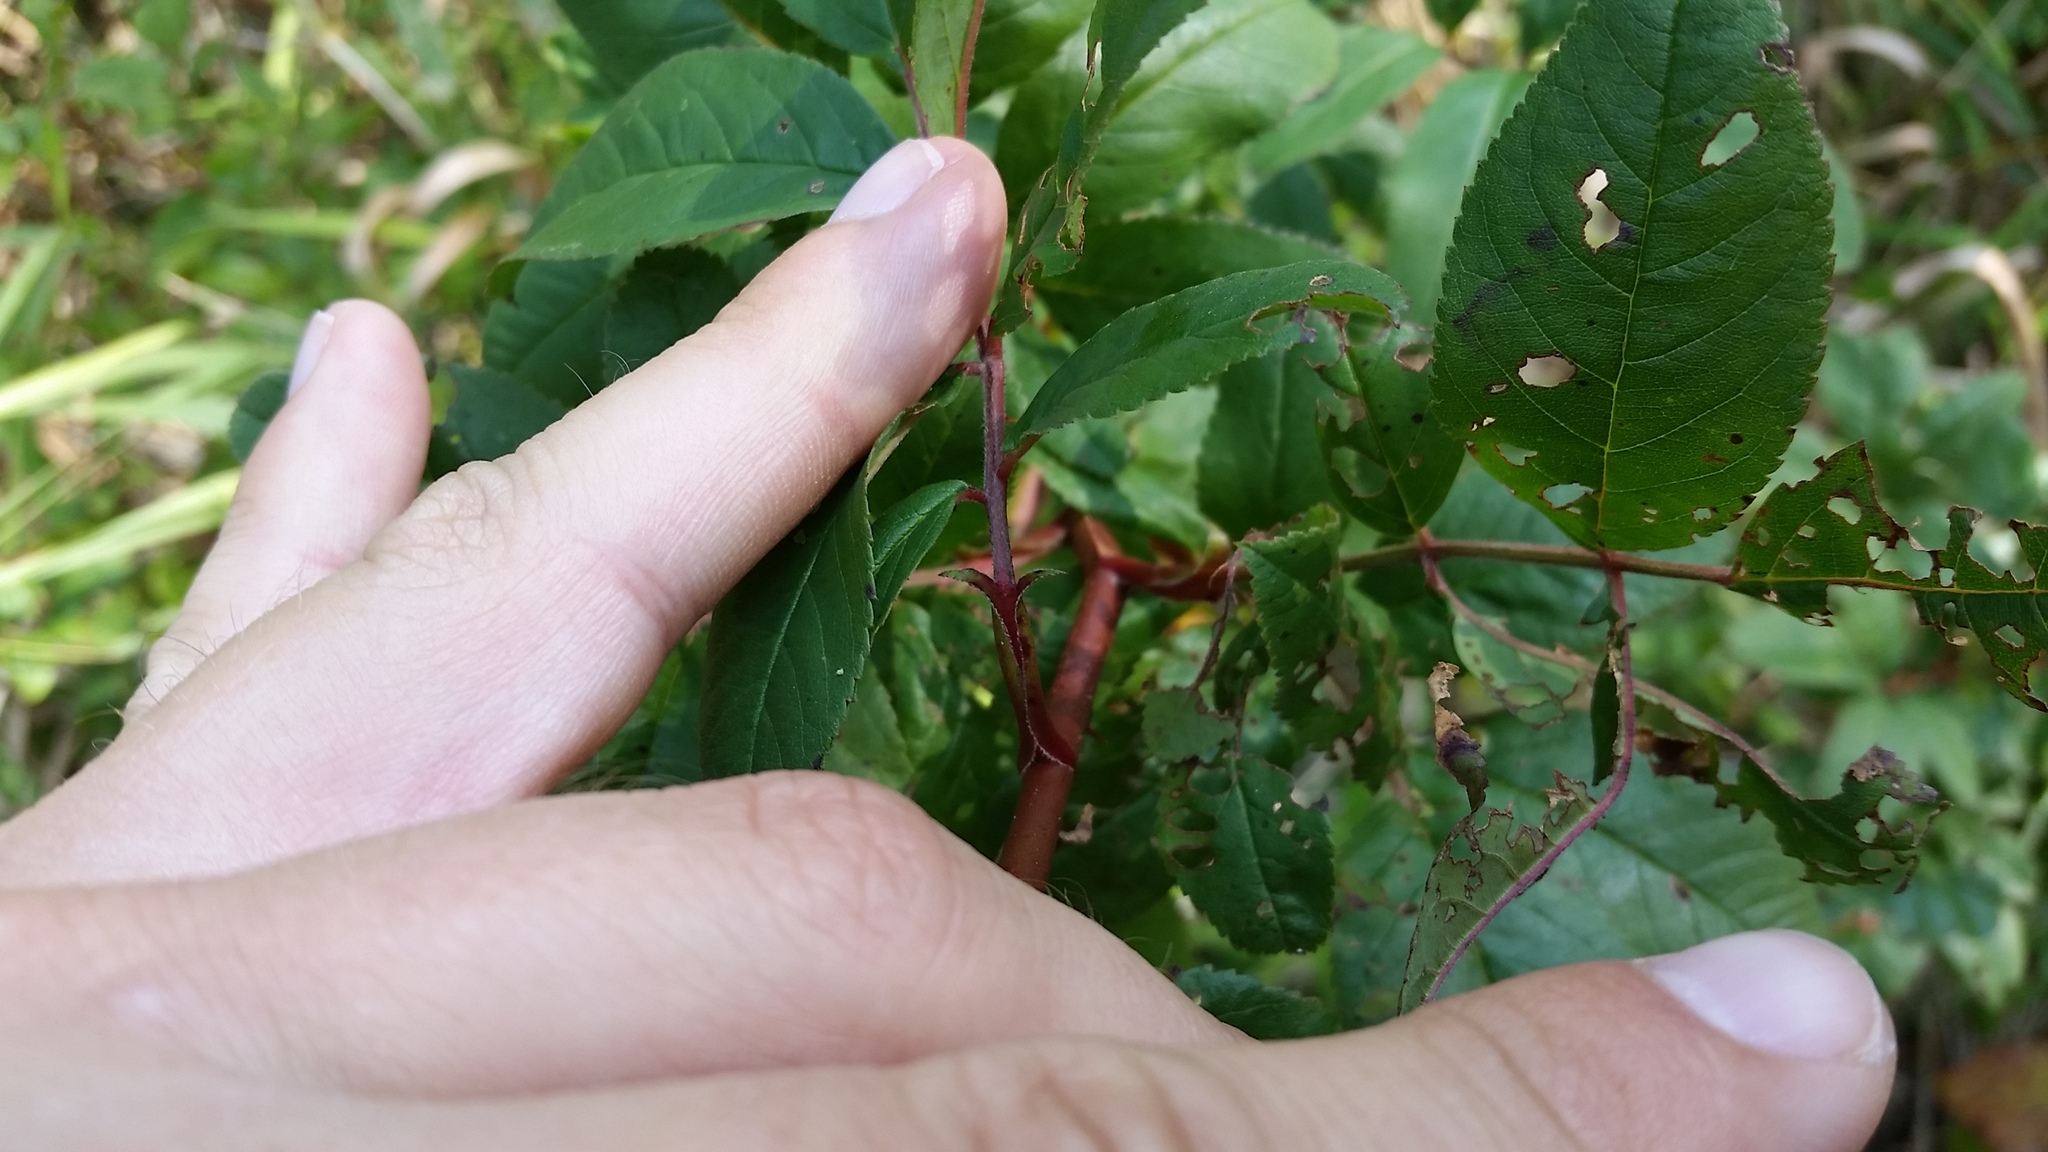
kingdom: Plantae
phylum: Tracheophyta
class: Magnoliopsida
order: Rosales
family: Rosaceae
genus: Rosa
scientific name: Rosa palustris
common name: Swamp rose
